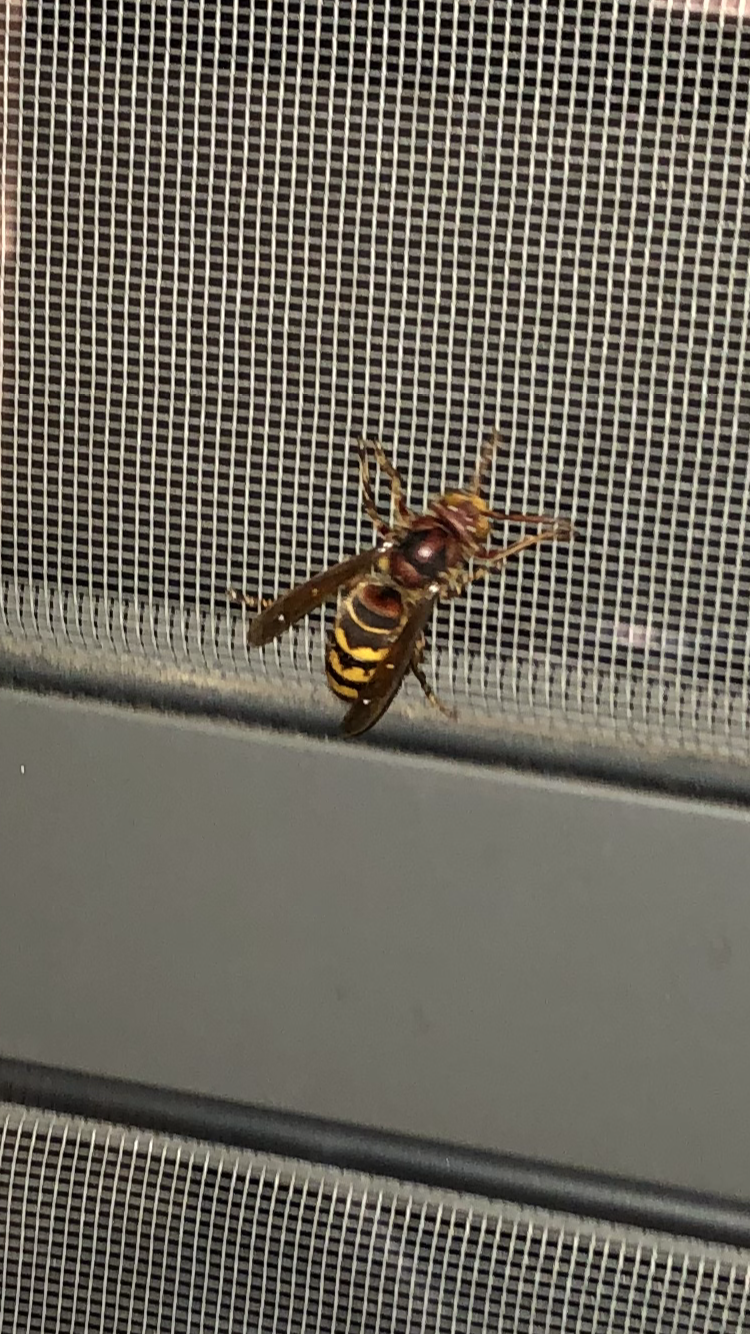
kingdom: Animalia
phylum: Arthropoda
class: Insecta
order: Hymenoptera
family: Vespidae
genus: Vespa
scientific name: Vespa crabro
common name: Hornet
